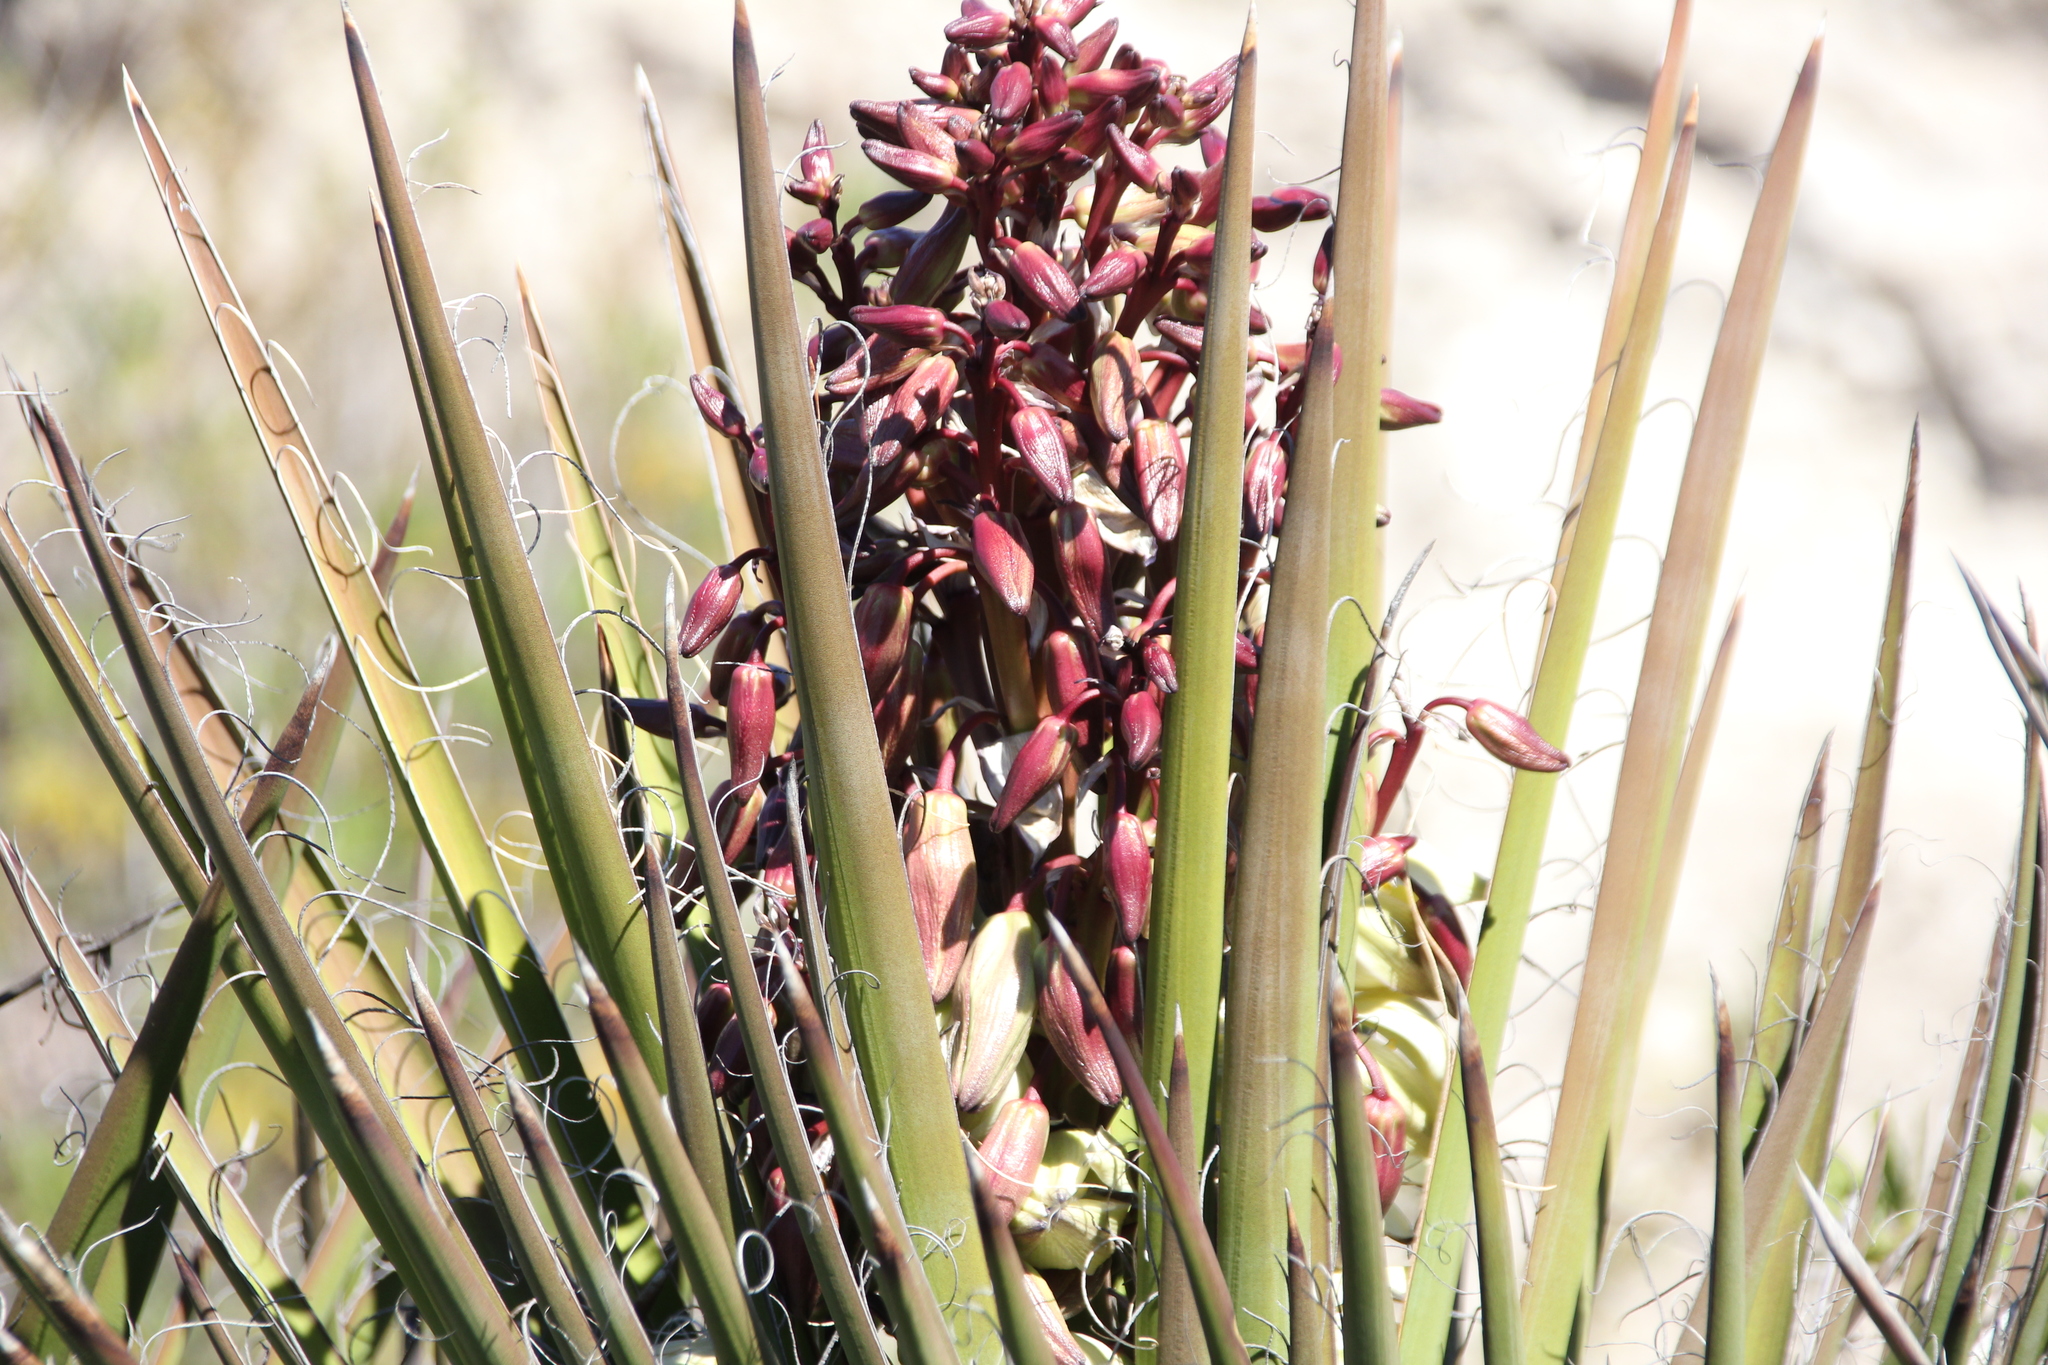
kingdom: Plantae
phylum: Tracheophyta
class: Liliopsida
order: Asparagales
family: Asparagaceae
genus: Yucca
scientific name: Yucca schidigera
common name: Mojave yucca
